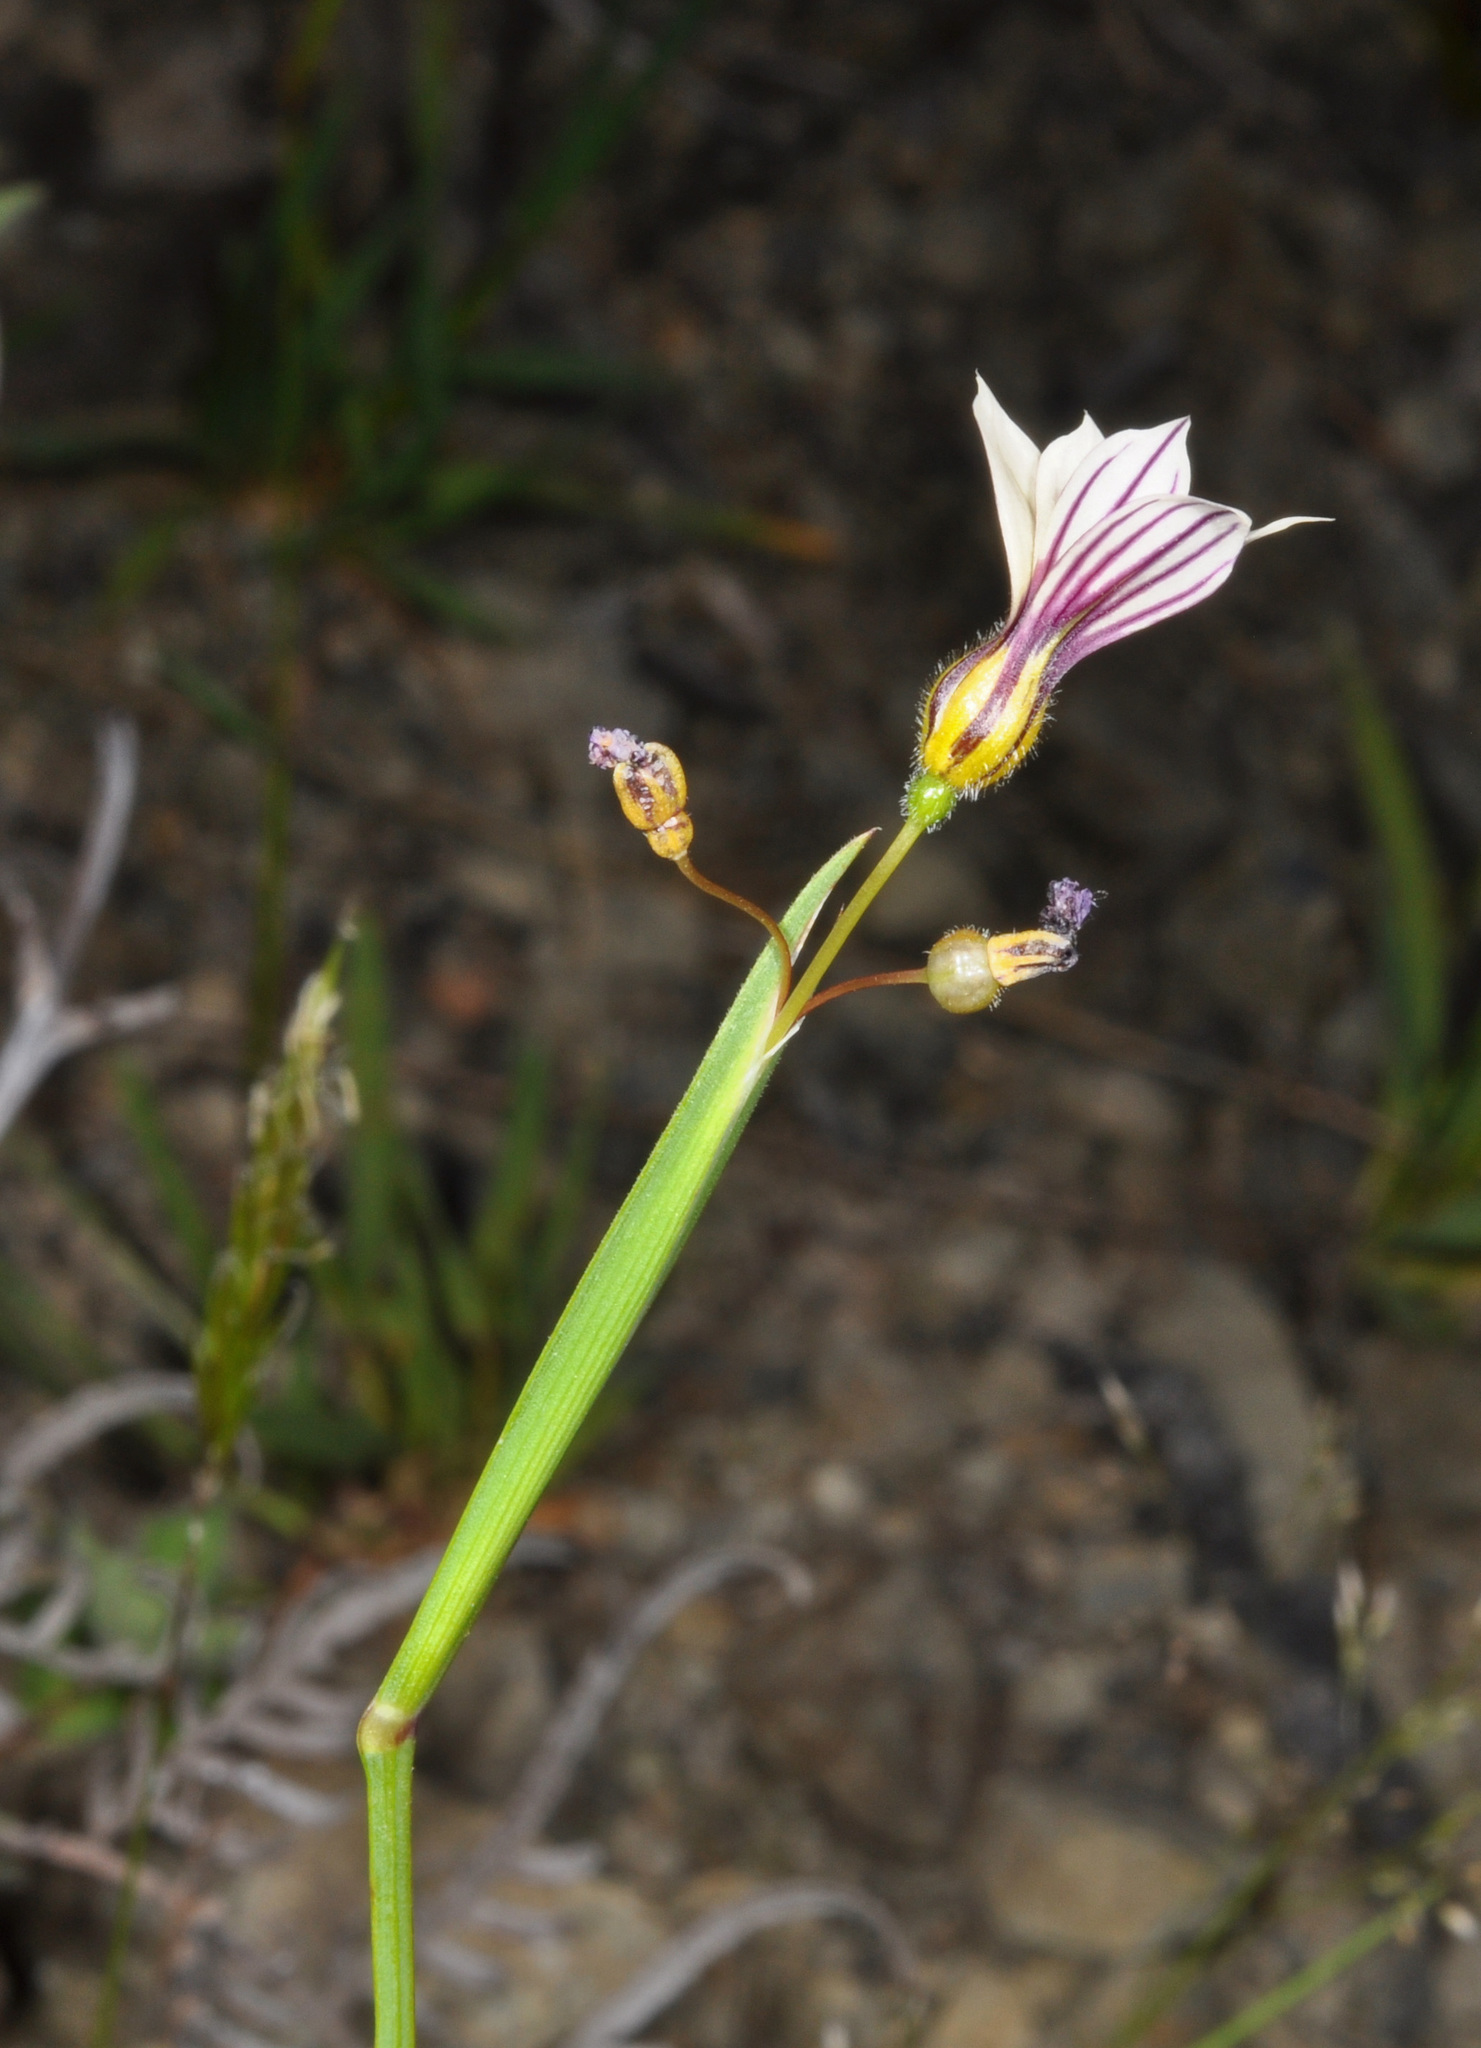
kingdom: Plantae
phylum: Tracheophyta
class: Liliopsida
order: Asparagales
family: Iridaceae
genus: Sisyrinchium
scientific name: Sisyrinchium micranthum
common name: Bermuda pigroot
